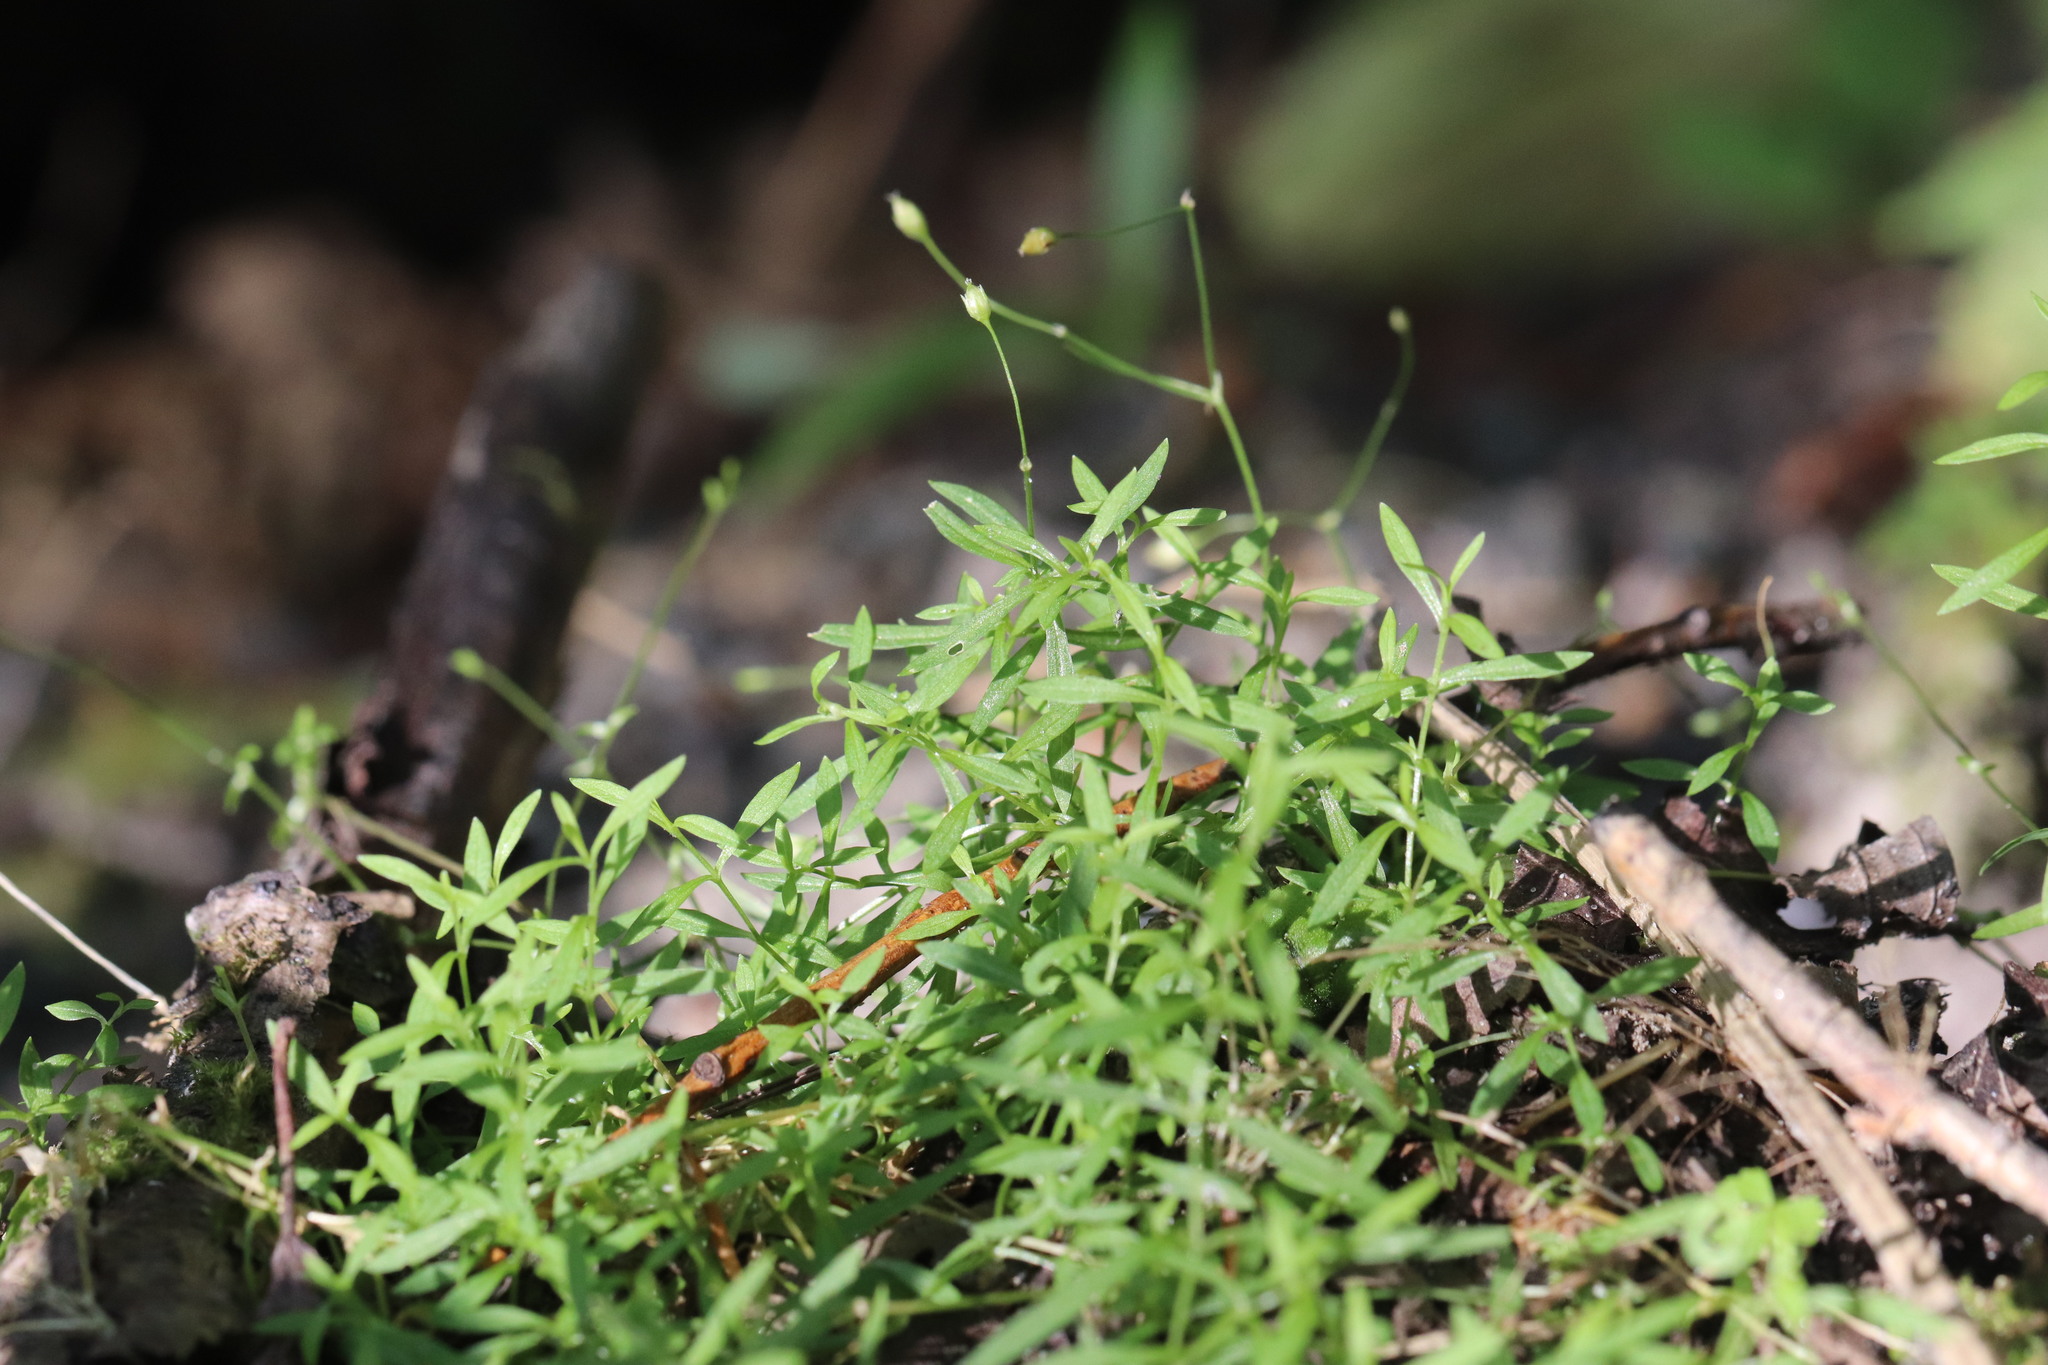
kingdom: Plantae
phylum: Tracheophyta
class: Magnoliopsida
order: Caryophyllales
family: Caryophyllaceae
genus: Stellaria
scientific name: Stellaria longifolia
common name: Long-leaved chickweed
